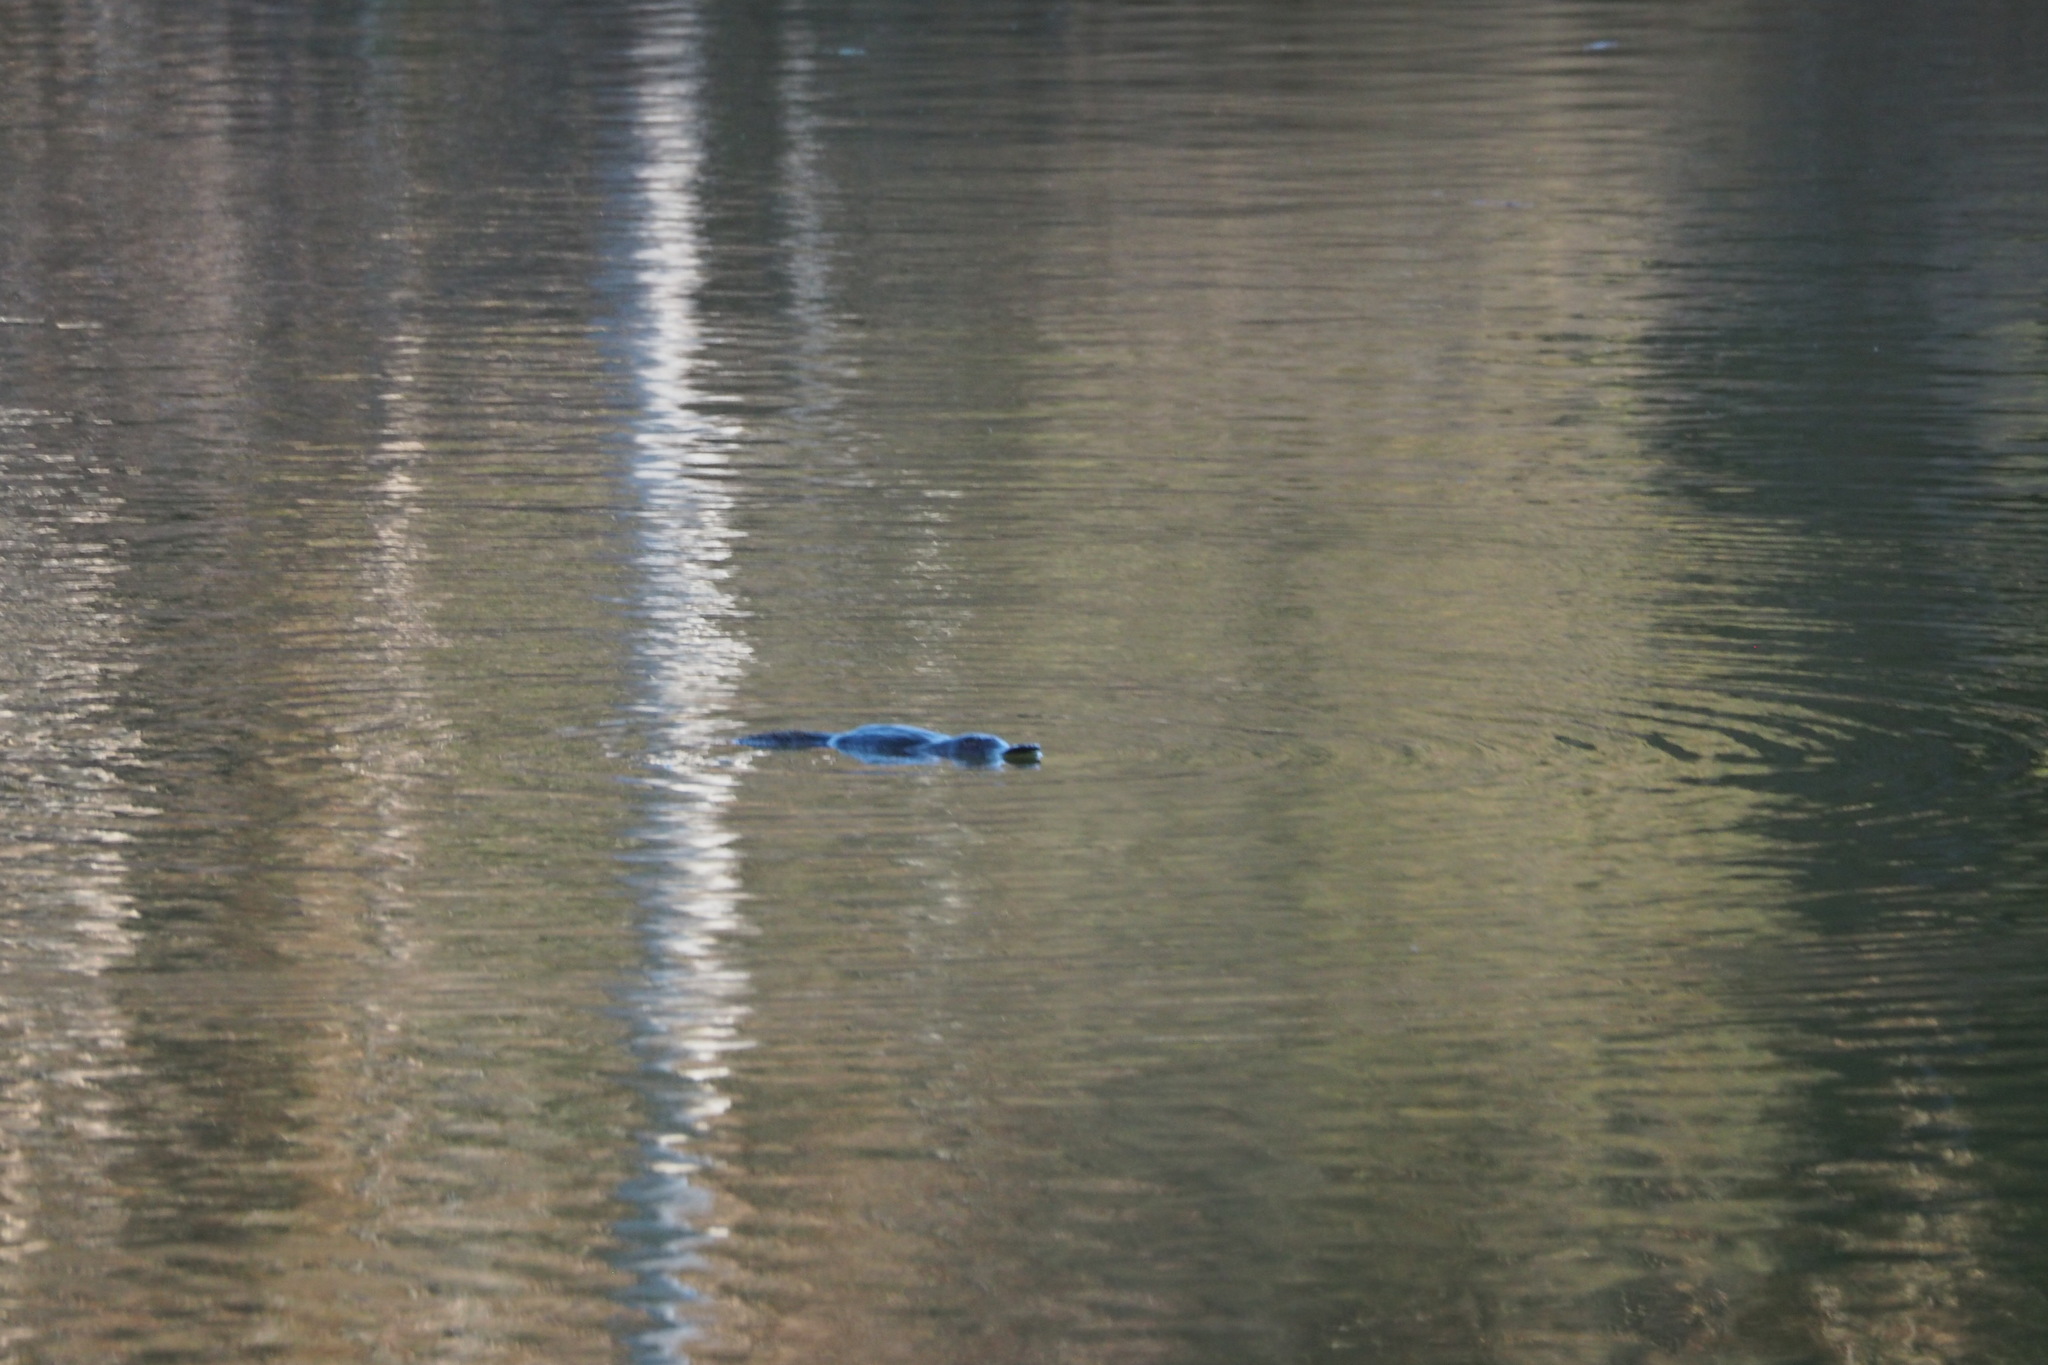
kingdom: Animalia
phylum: Chordata
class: Mammalia
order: Monotremata
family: Ornithorhynchidae
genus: Ornithorhynchus
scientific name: Ornithorhynchus anatinus
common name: Platypus
